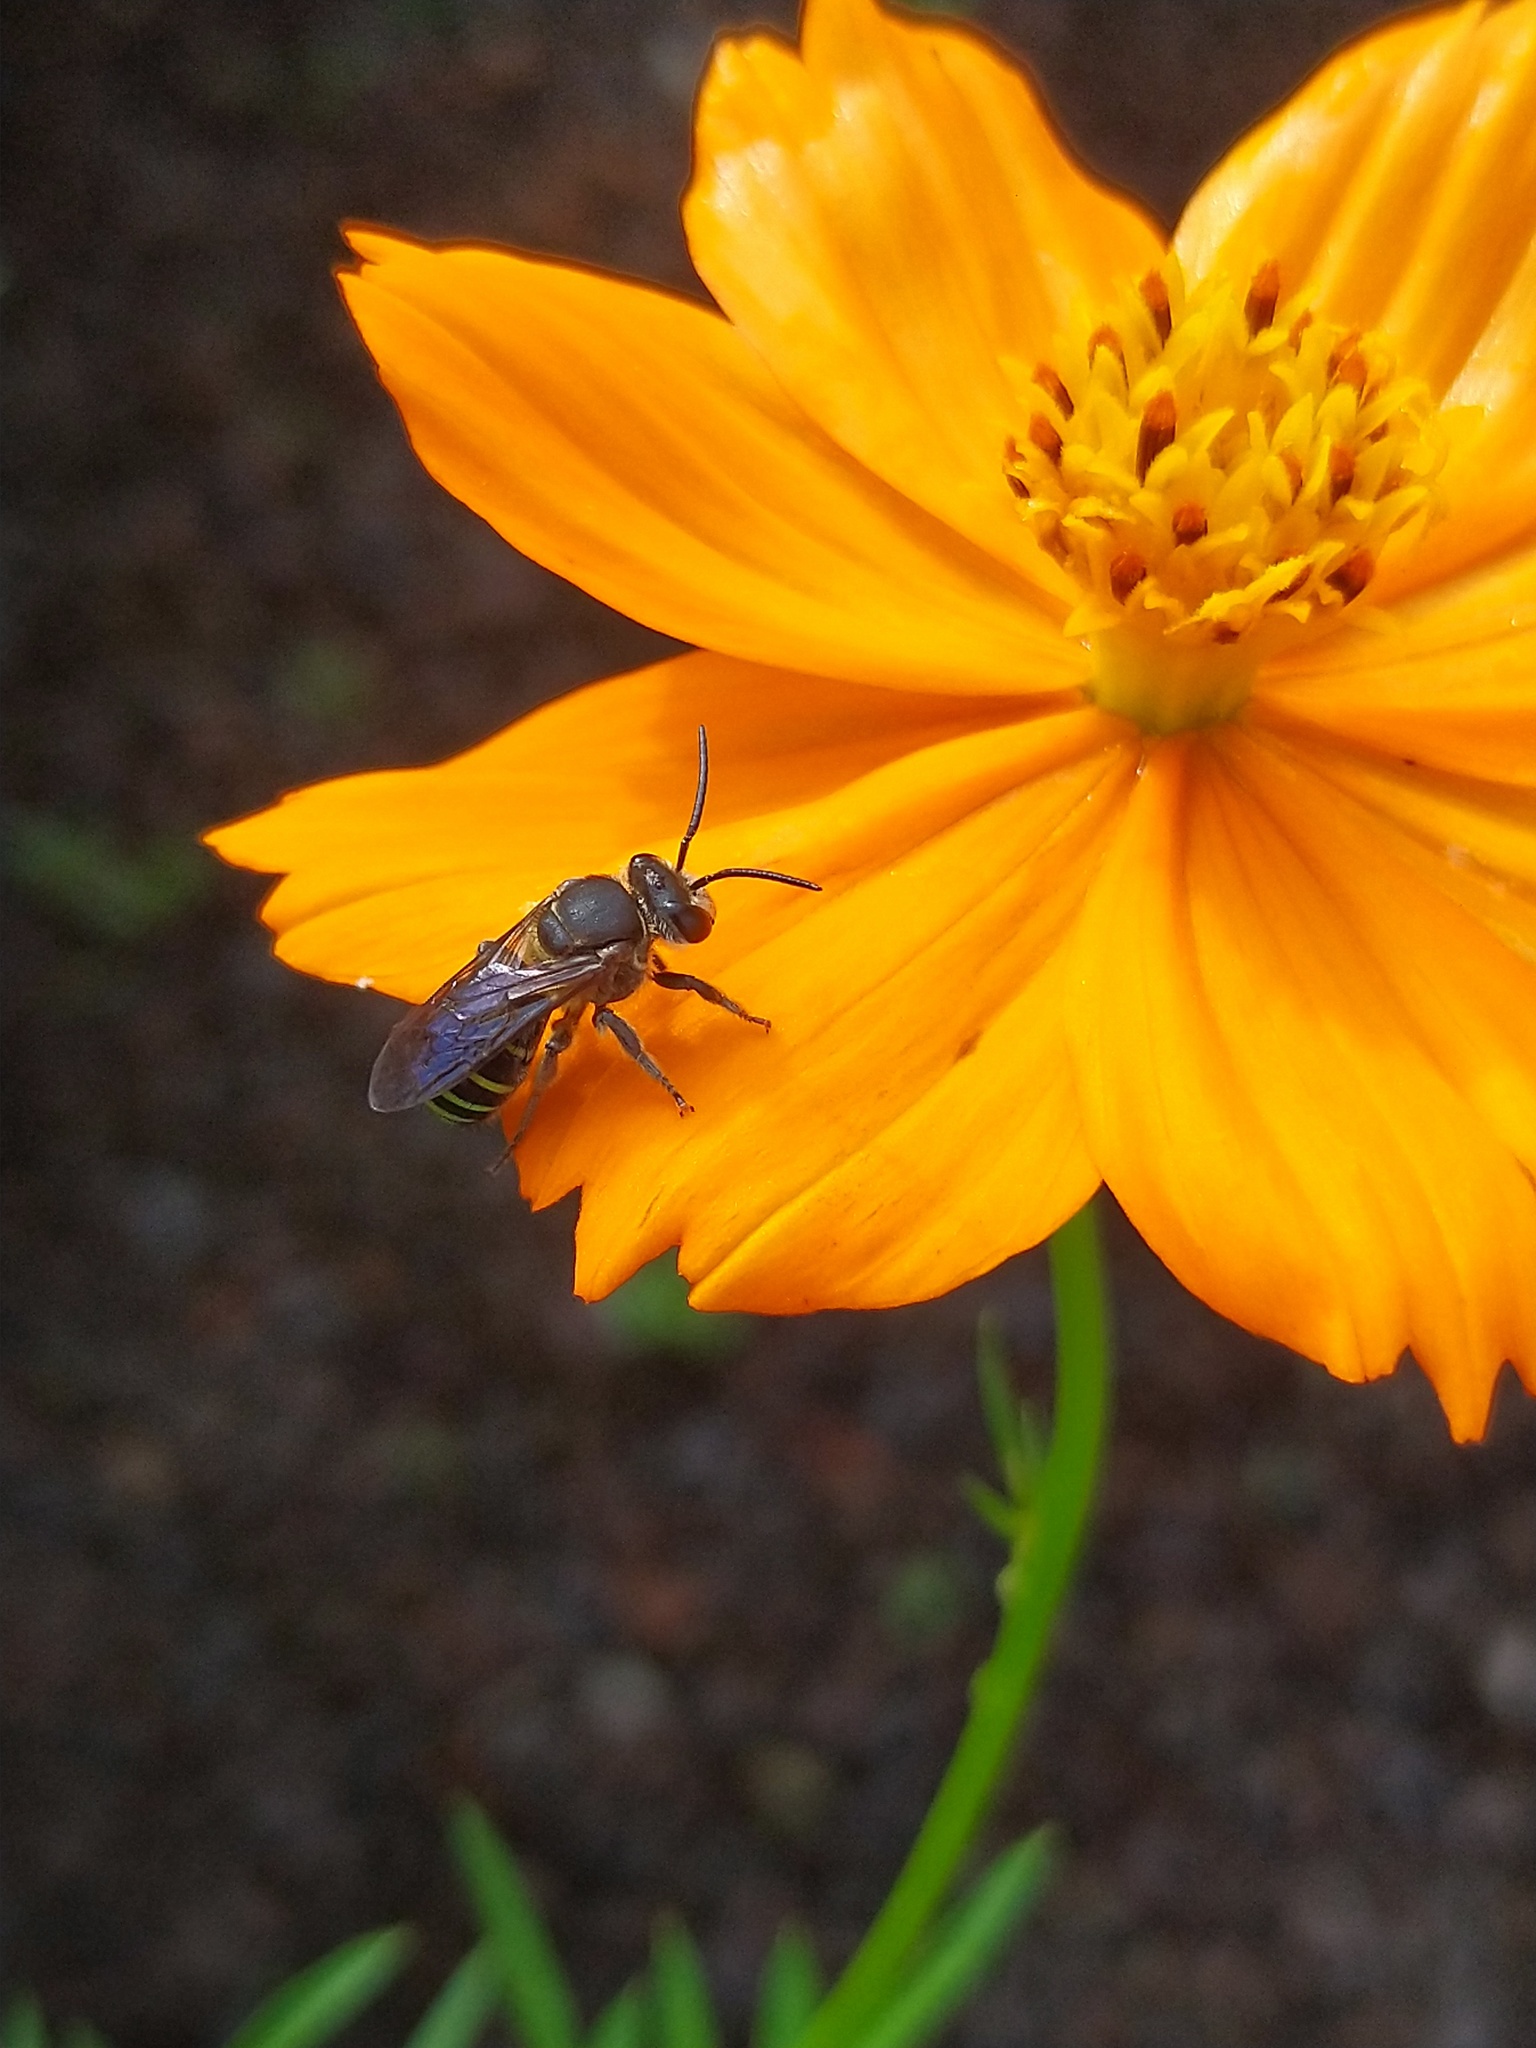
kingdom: Animalia
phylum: Arthropoda
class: Insecta
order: Hymenoptera
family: Halictidae
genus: Nomia
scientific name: Nomia strigata
